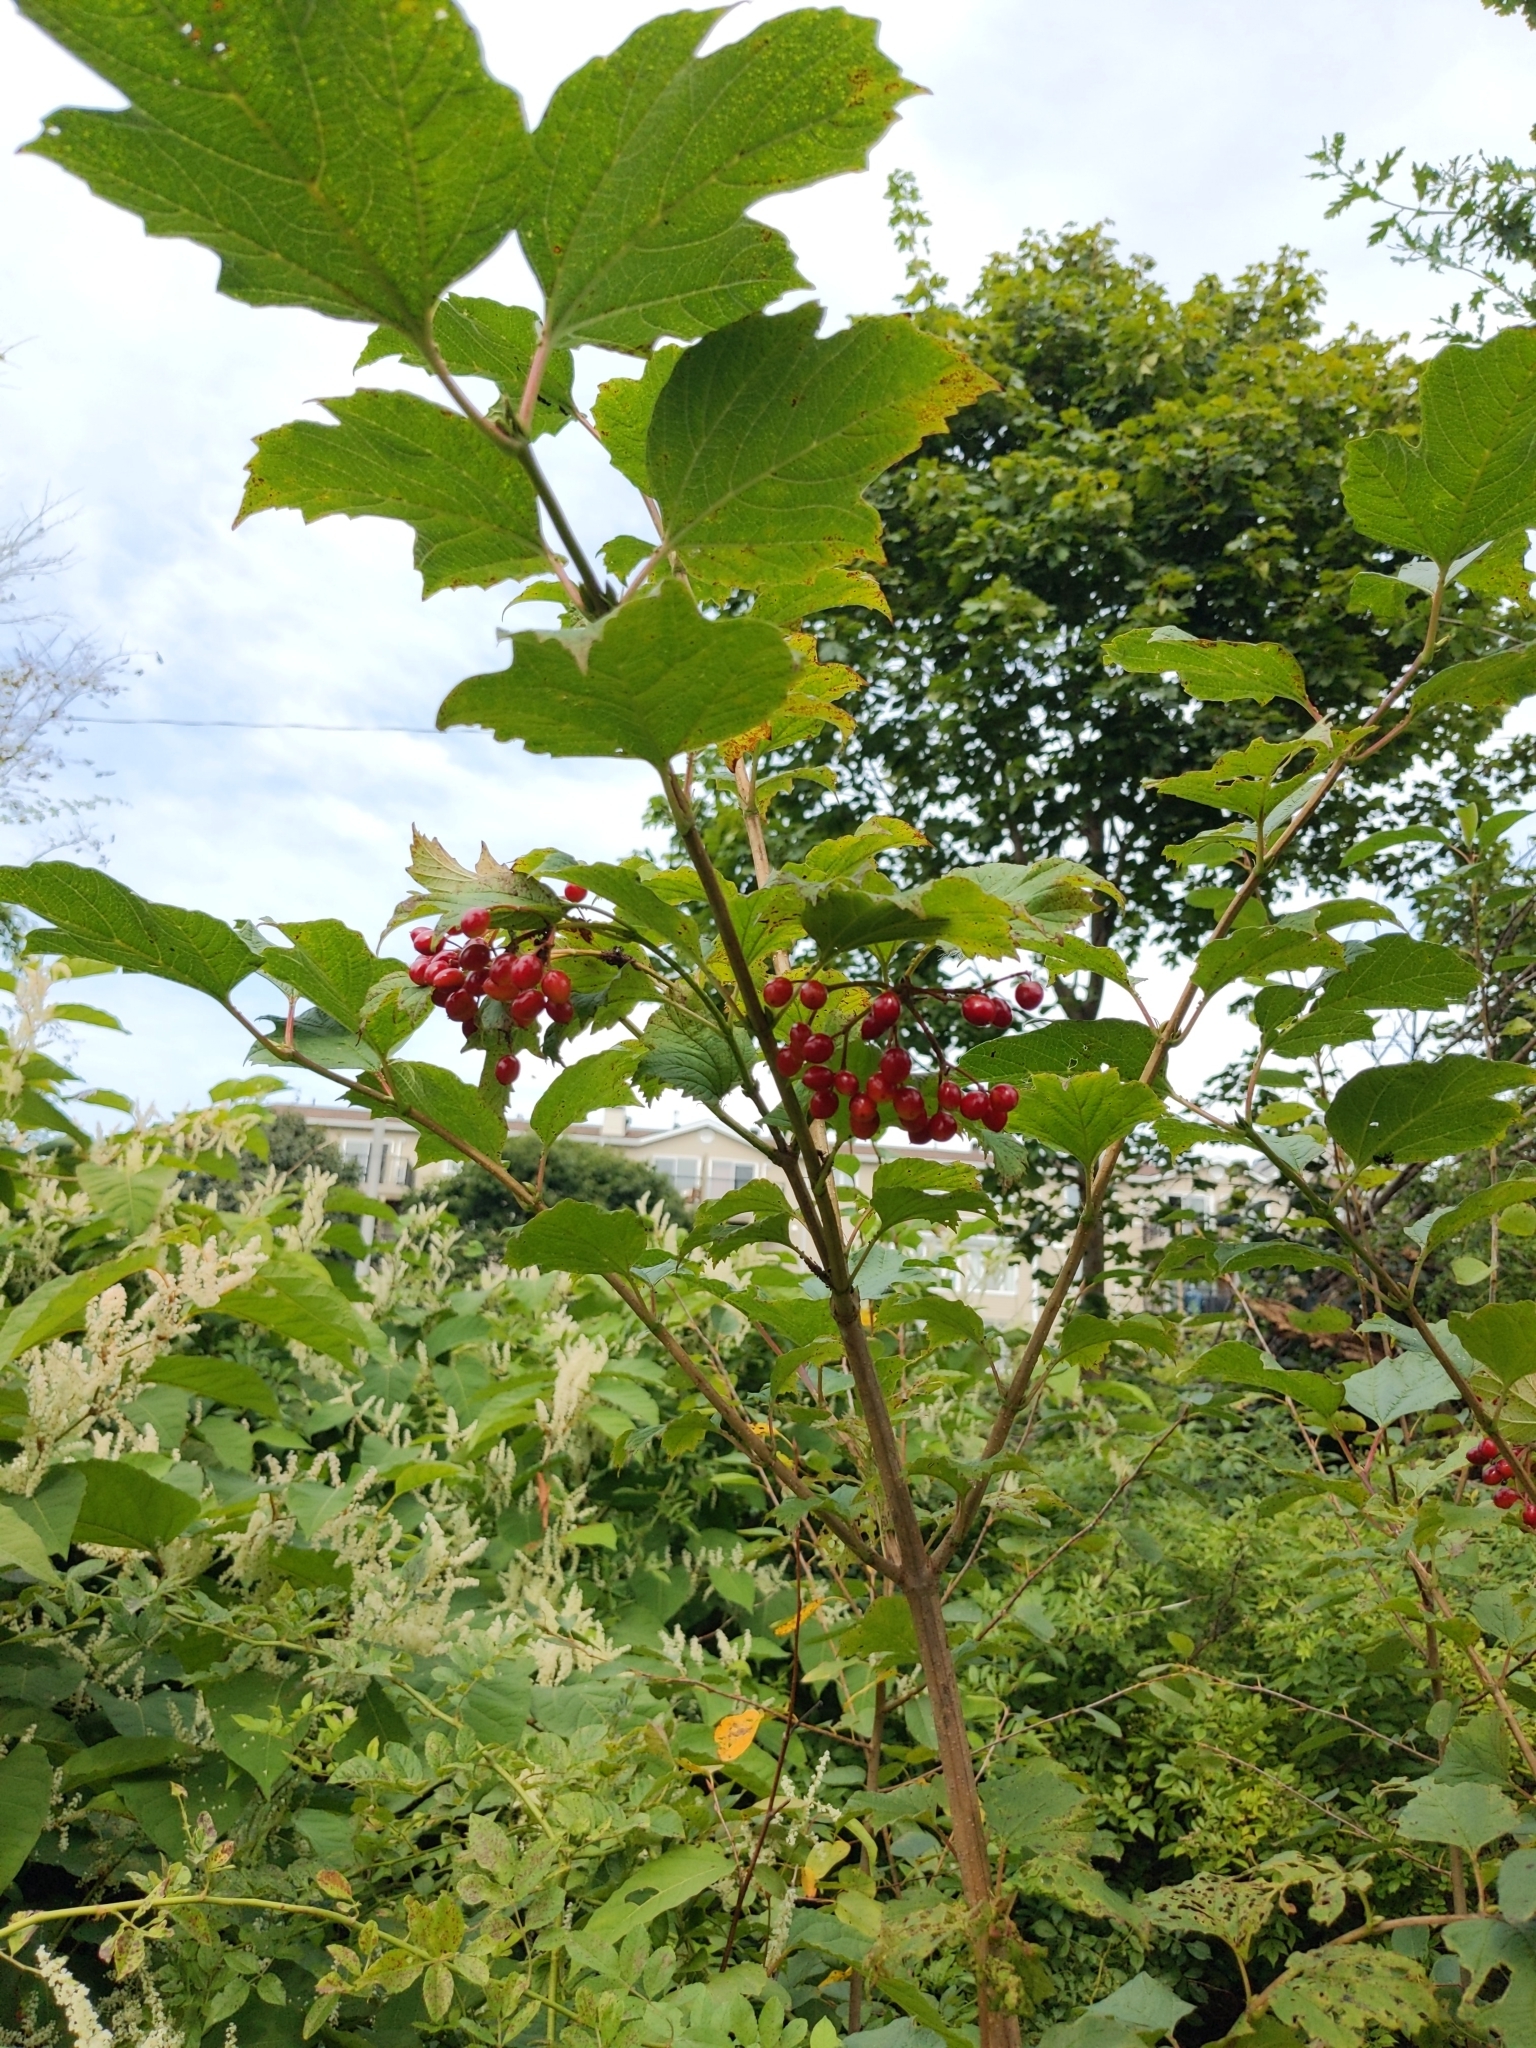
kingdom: Plantae
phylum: Tracheophyta
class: Magnoliopsida
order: Dipsacales
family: Viburnaceae
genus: Viburnum
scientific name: Viburnum opulus
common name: Guelder-rose
